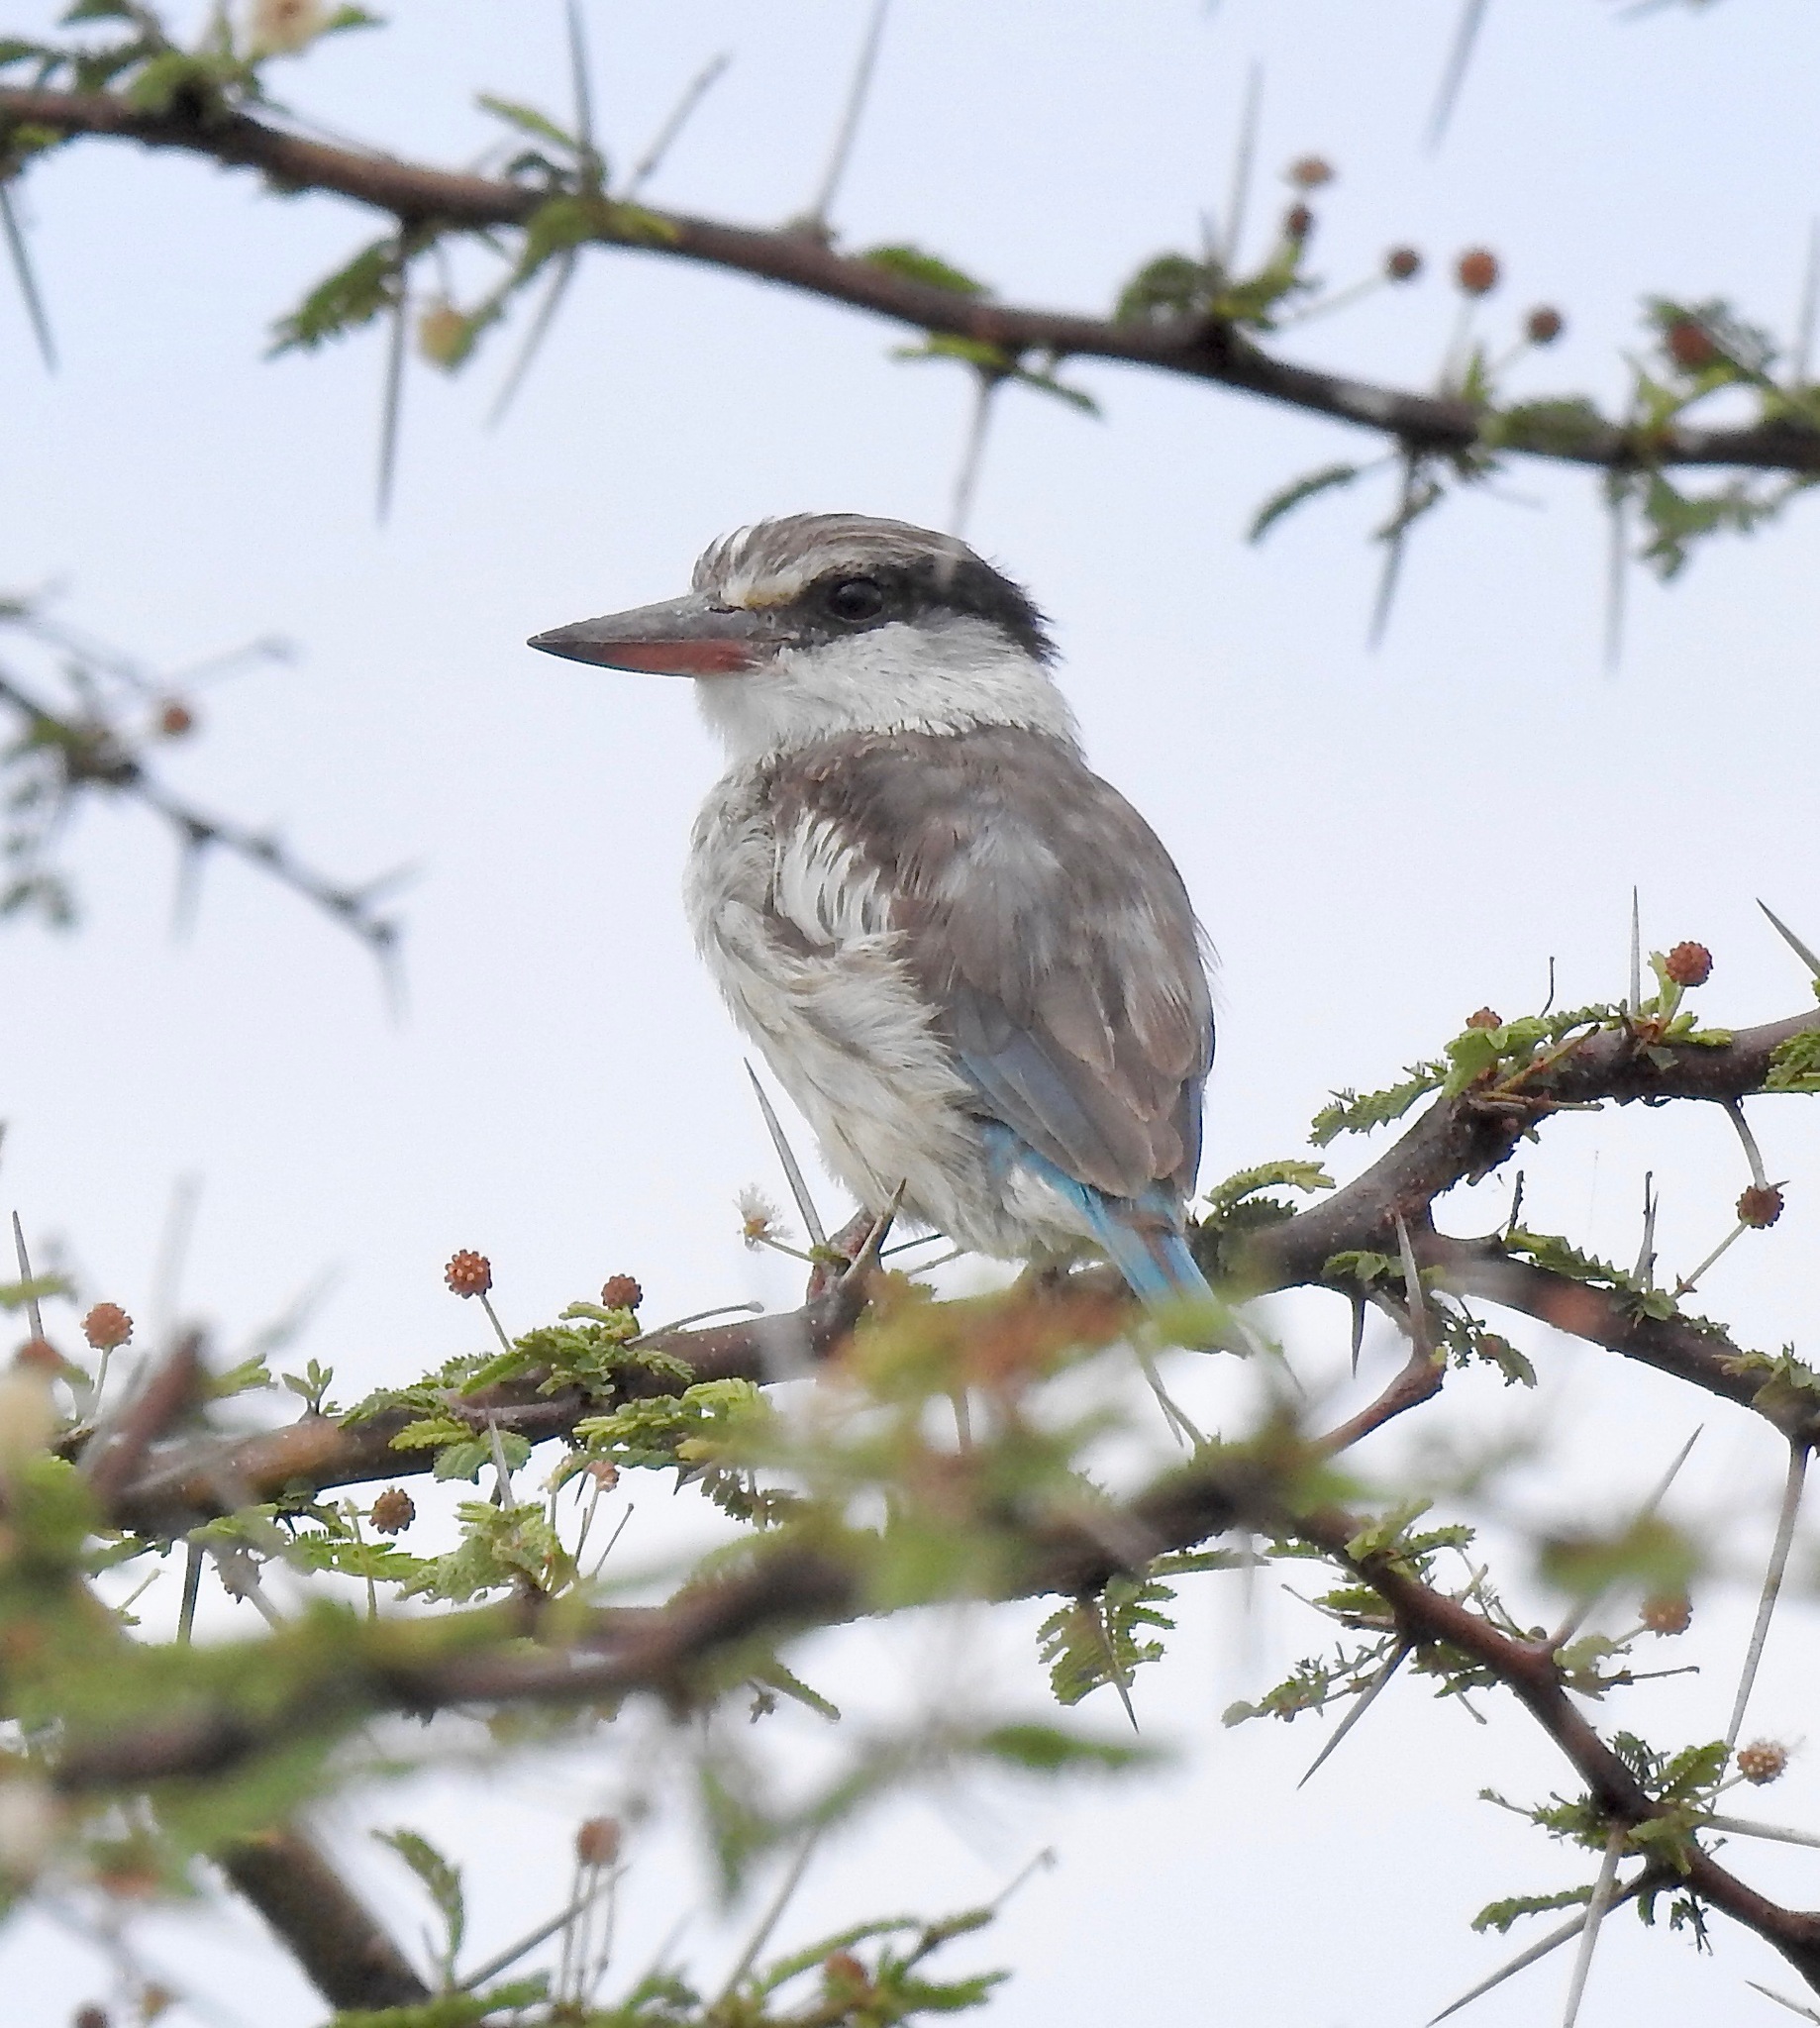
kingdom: Animalia
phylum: Chordata
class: Aves
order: Coraciiformes
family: Alcedinidae
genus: Halcyon
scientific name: Halcyon chelicuti
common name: Striped kingfisher
